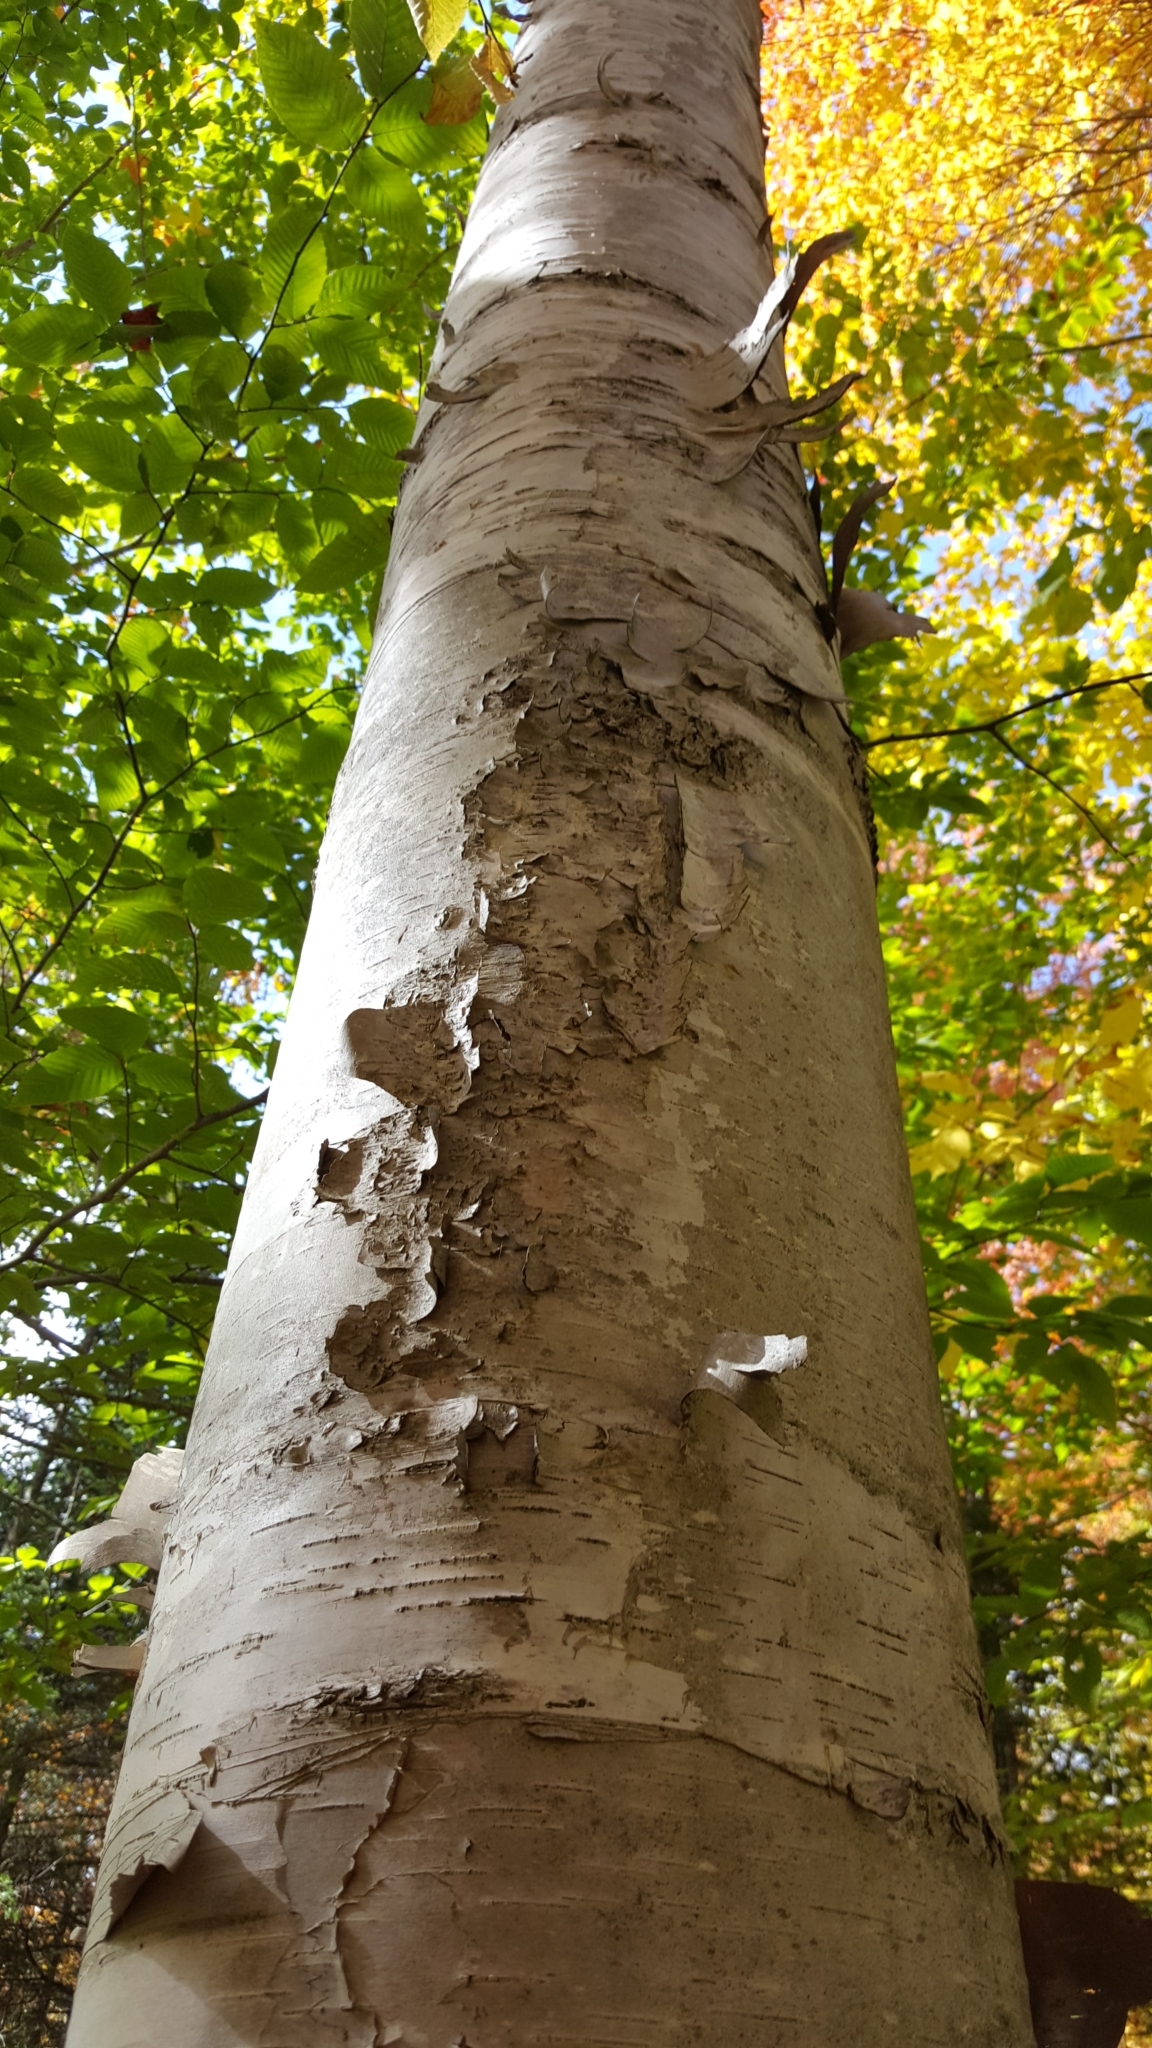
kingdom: Plantae
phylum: Tracheophyta
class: Magnoliopsida
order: Fagales
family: Betulaceae
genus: Betula
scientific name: Betula papyrifera
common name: Paper birch
